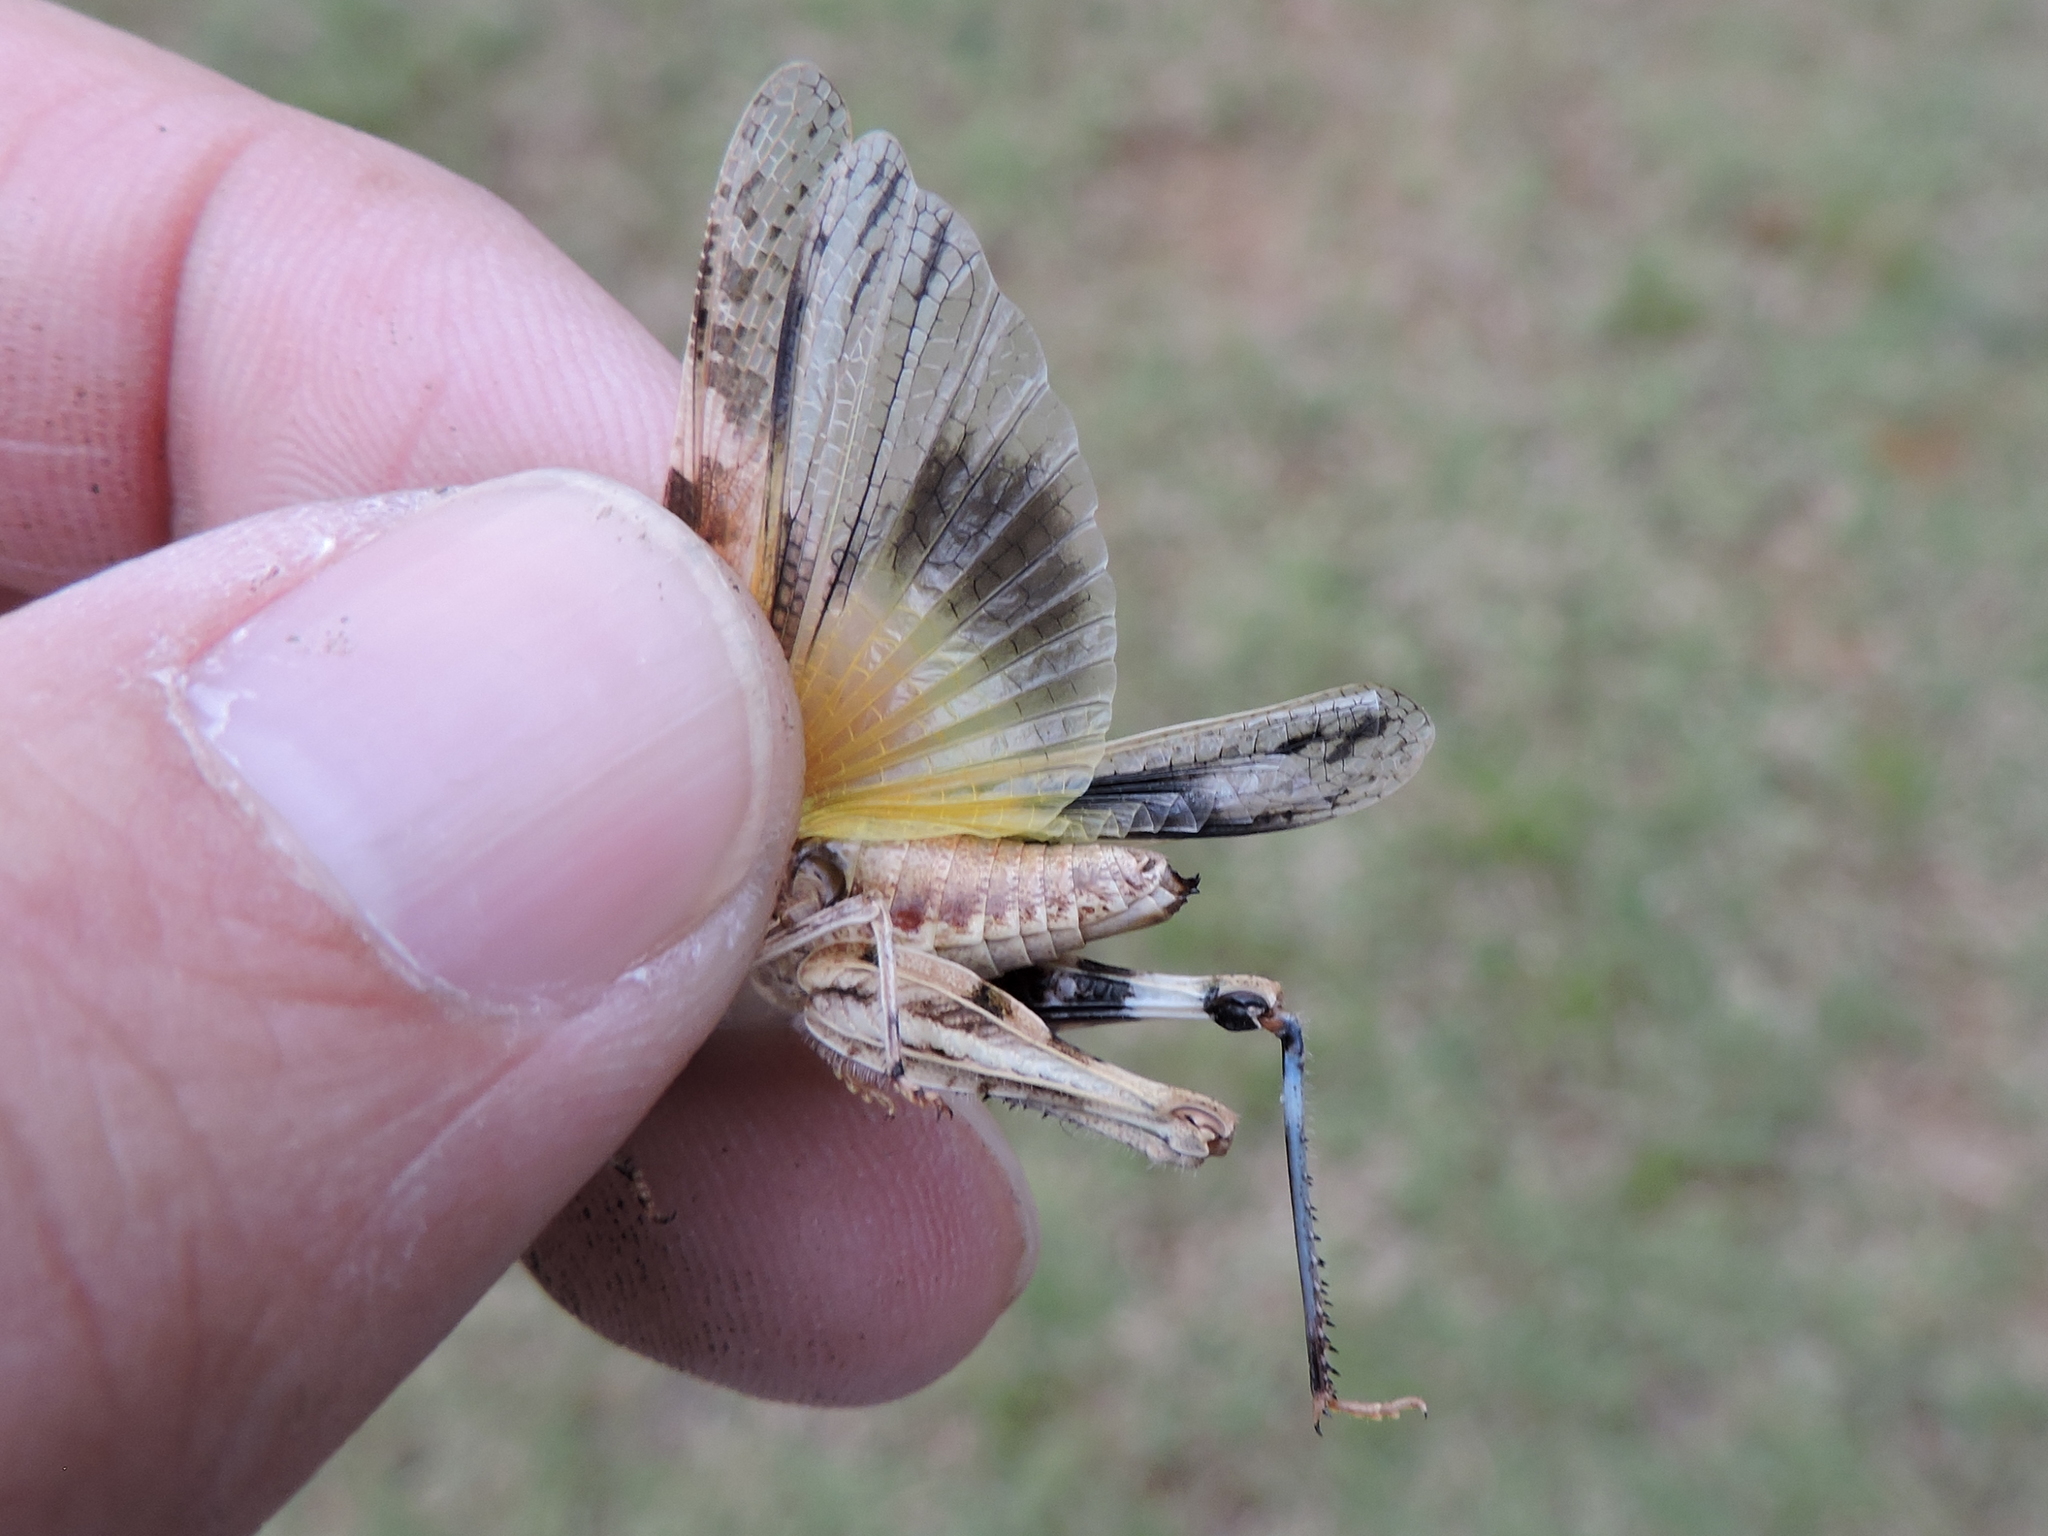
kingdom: Animalia
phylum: Arthropoda
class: Insecta
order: Orthoptera
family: Acrididae
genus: Trachyrhachys
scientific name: Trachyrhachys kiowa
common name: Kiowa grasshopper
